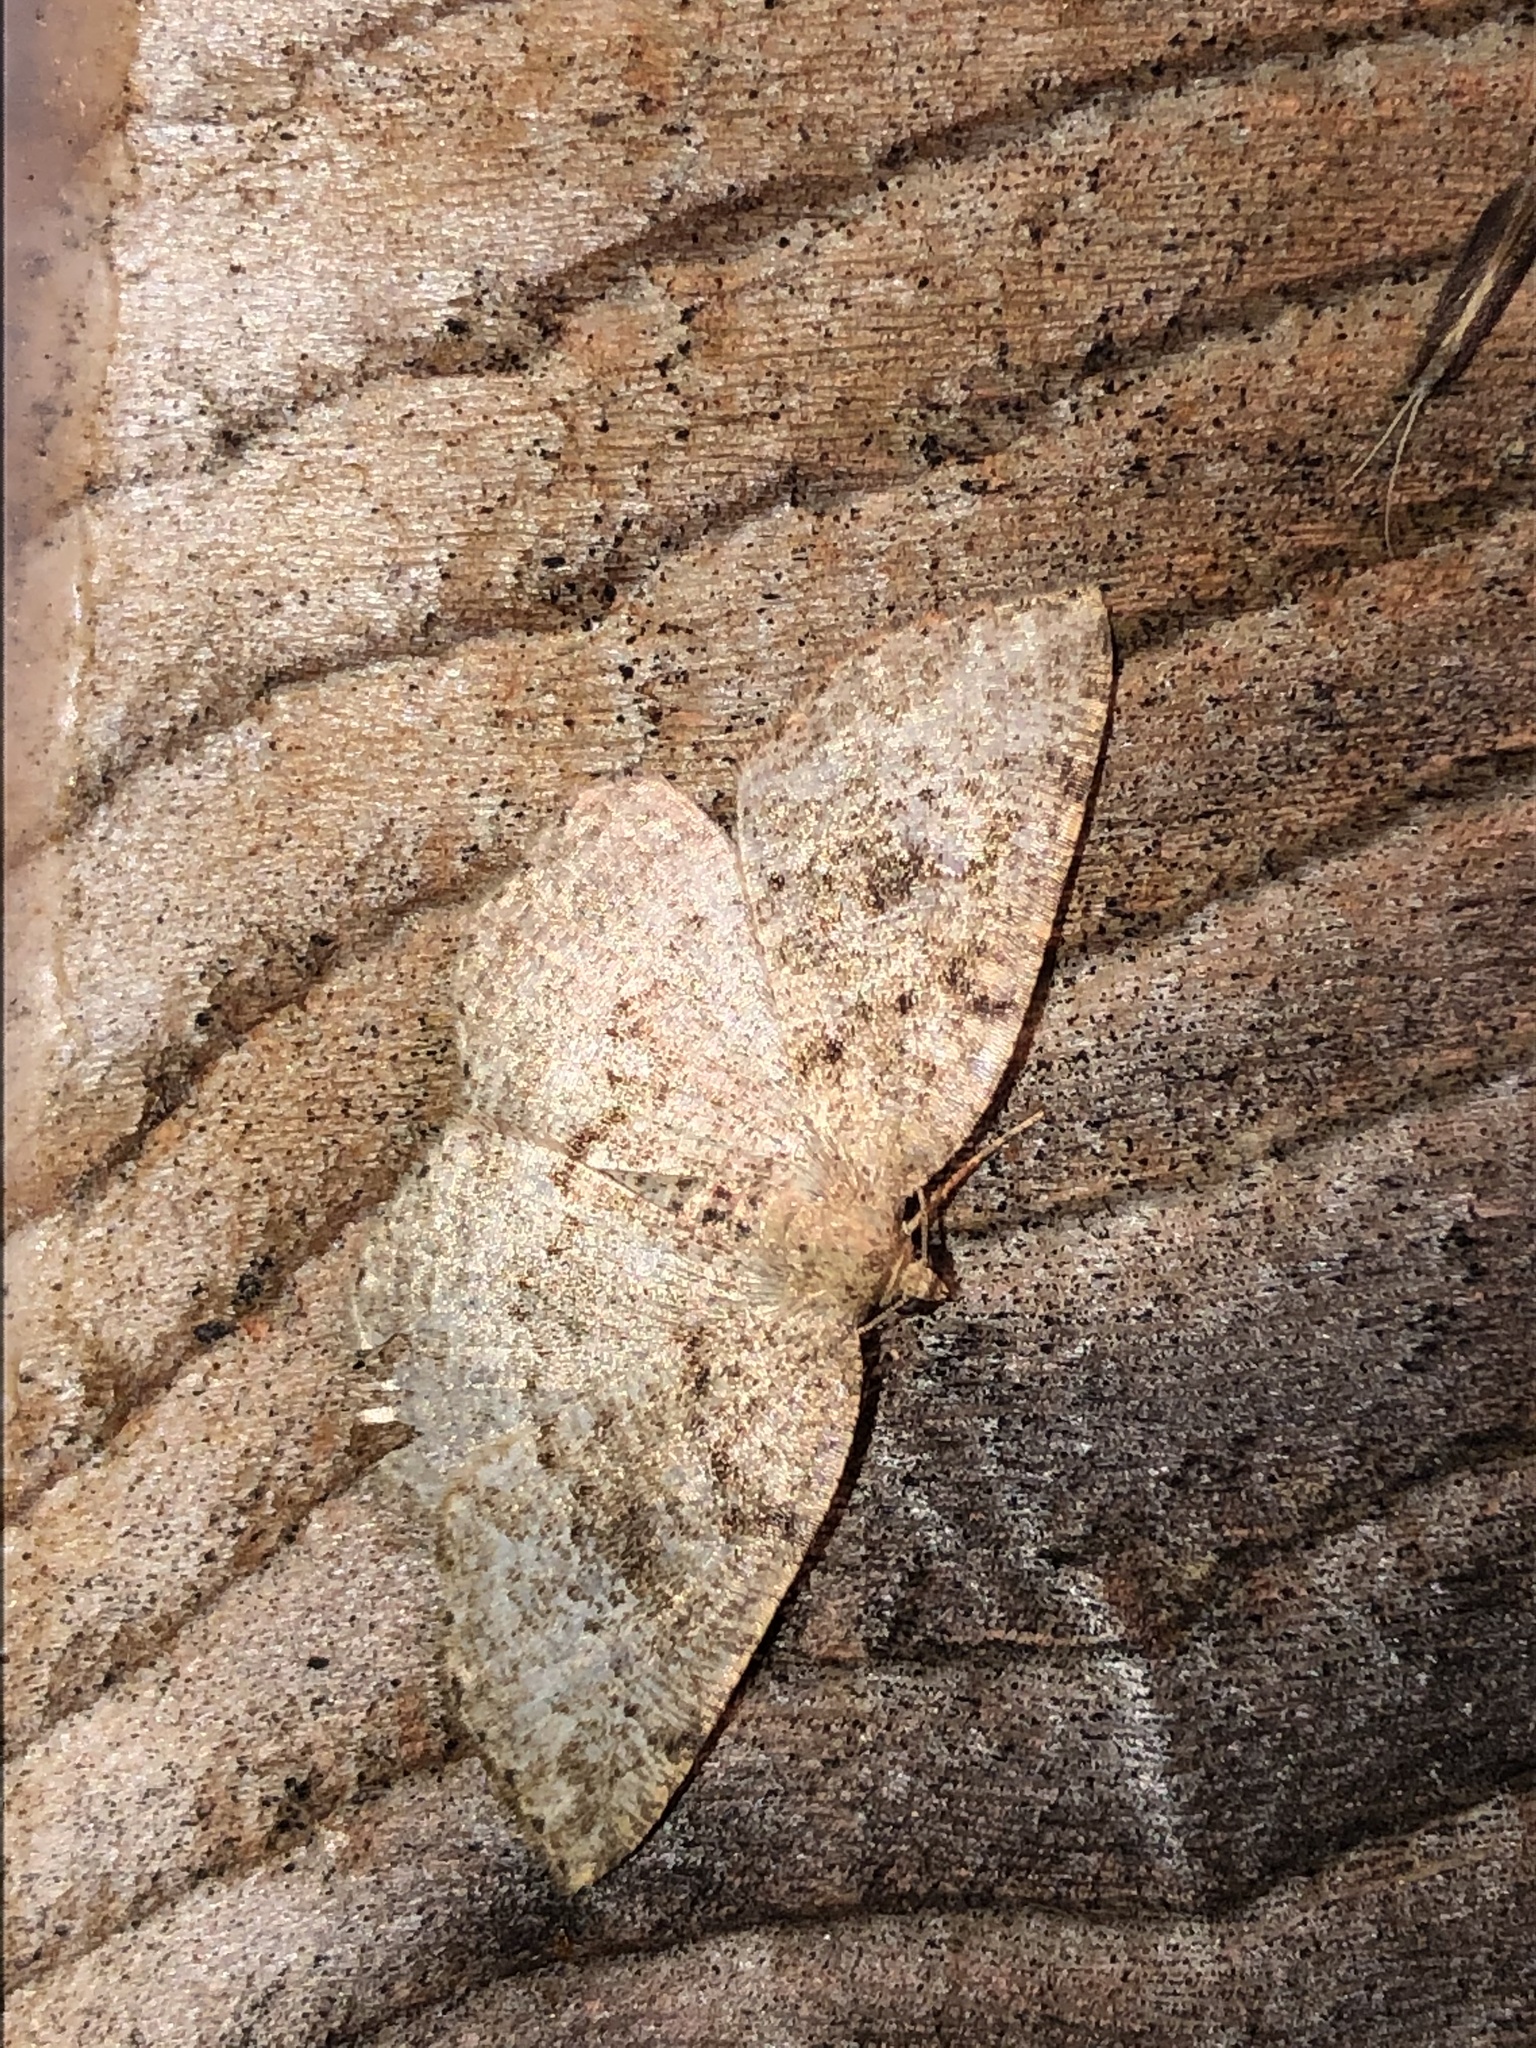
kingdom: Animalia
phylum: Arthropoda
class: Insecta
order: Lepidoptera
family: Geometridae
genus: Homochlodes
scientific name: Homochlodes fritillaria
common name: Pale homochlodes
